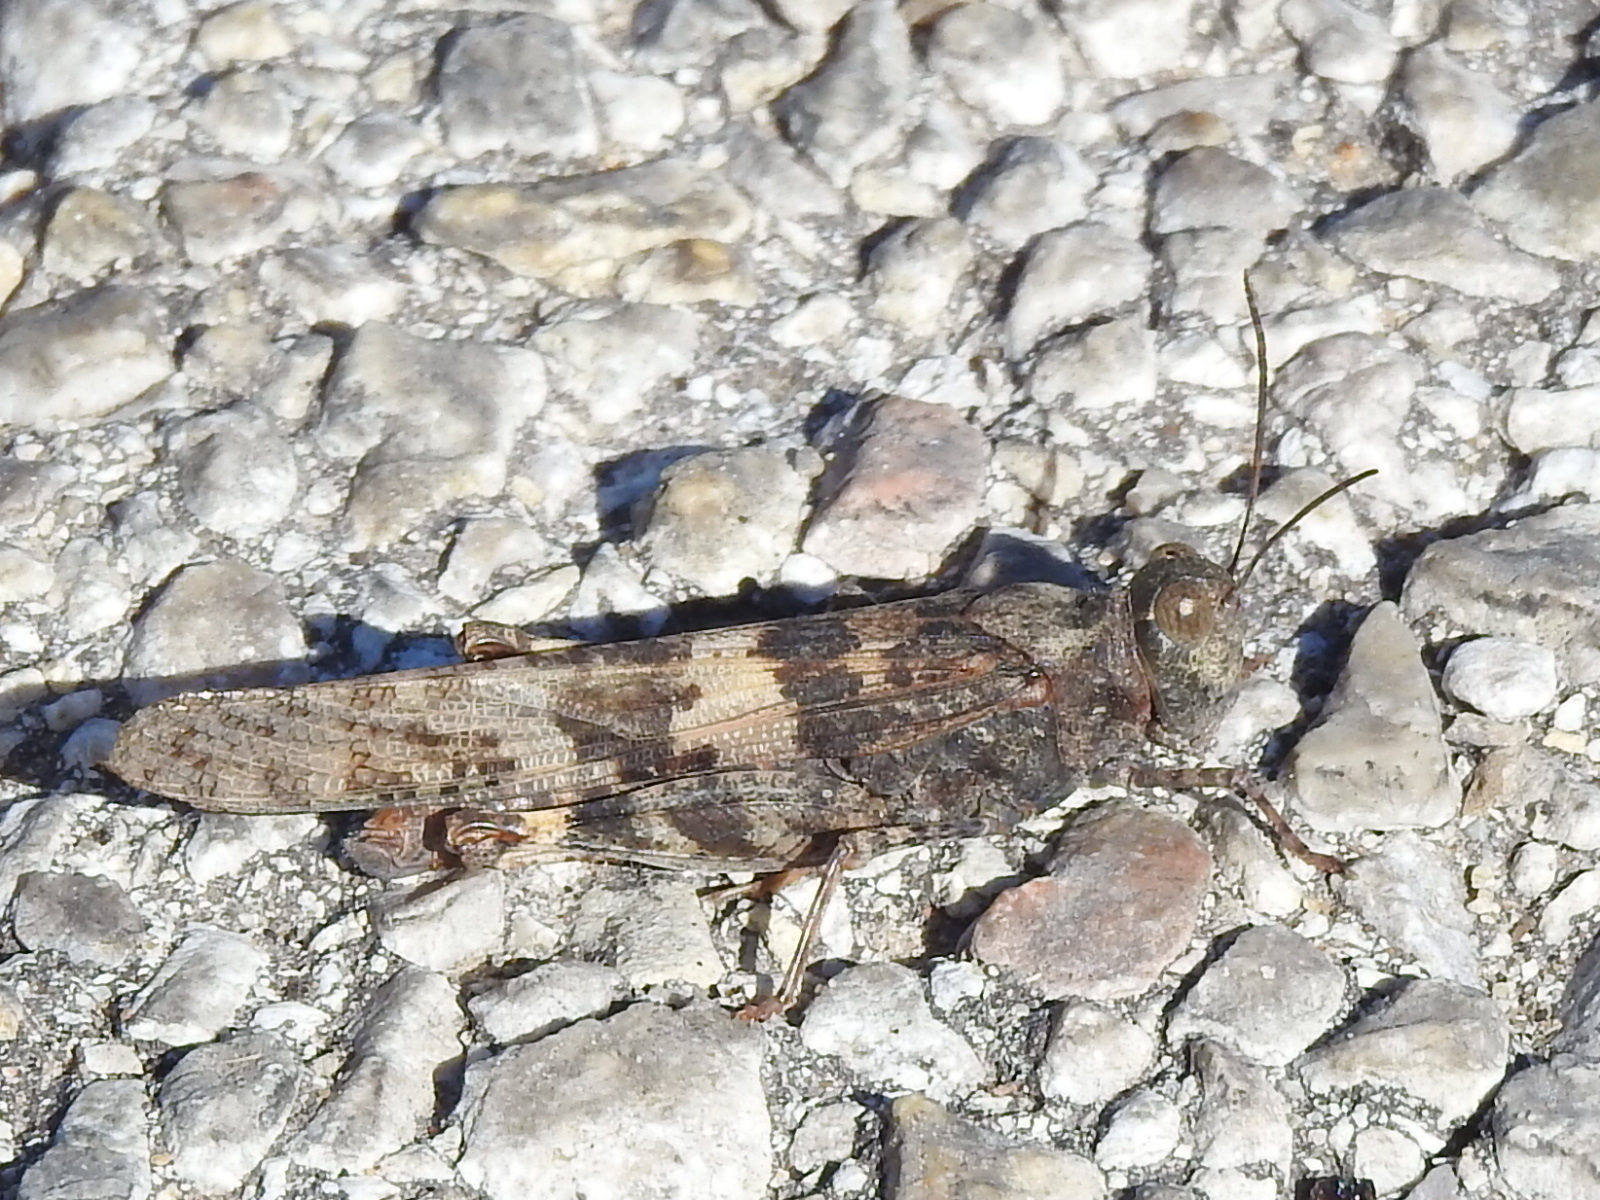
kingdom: Animalia
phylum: Arthropoda
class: Insecta
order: Orthoptera
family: Acrididae
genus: Trimerotropis
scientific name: Trimerotropis maritima
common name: Seaside locust
